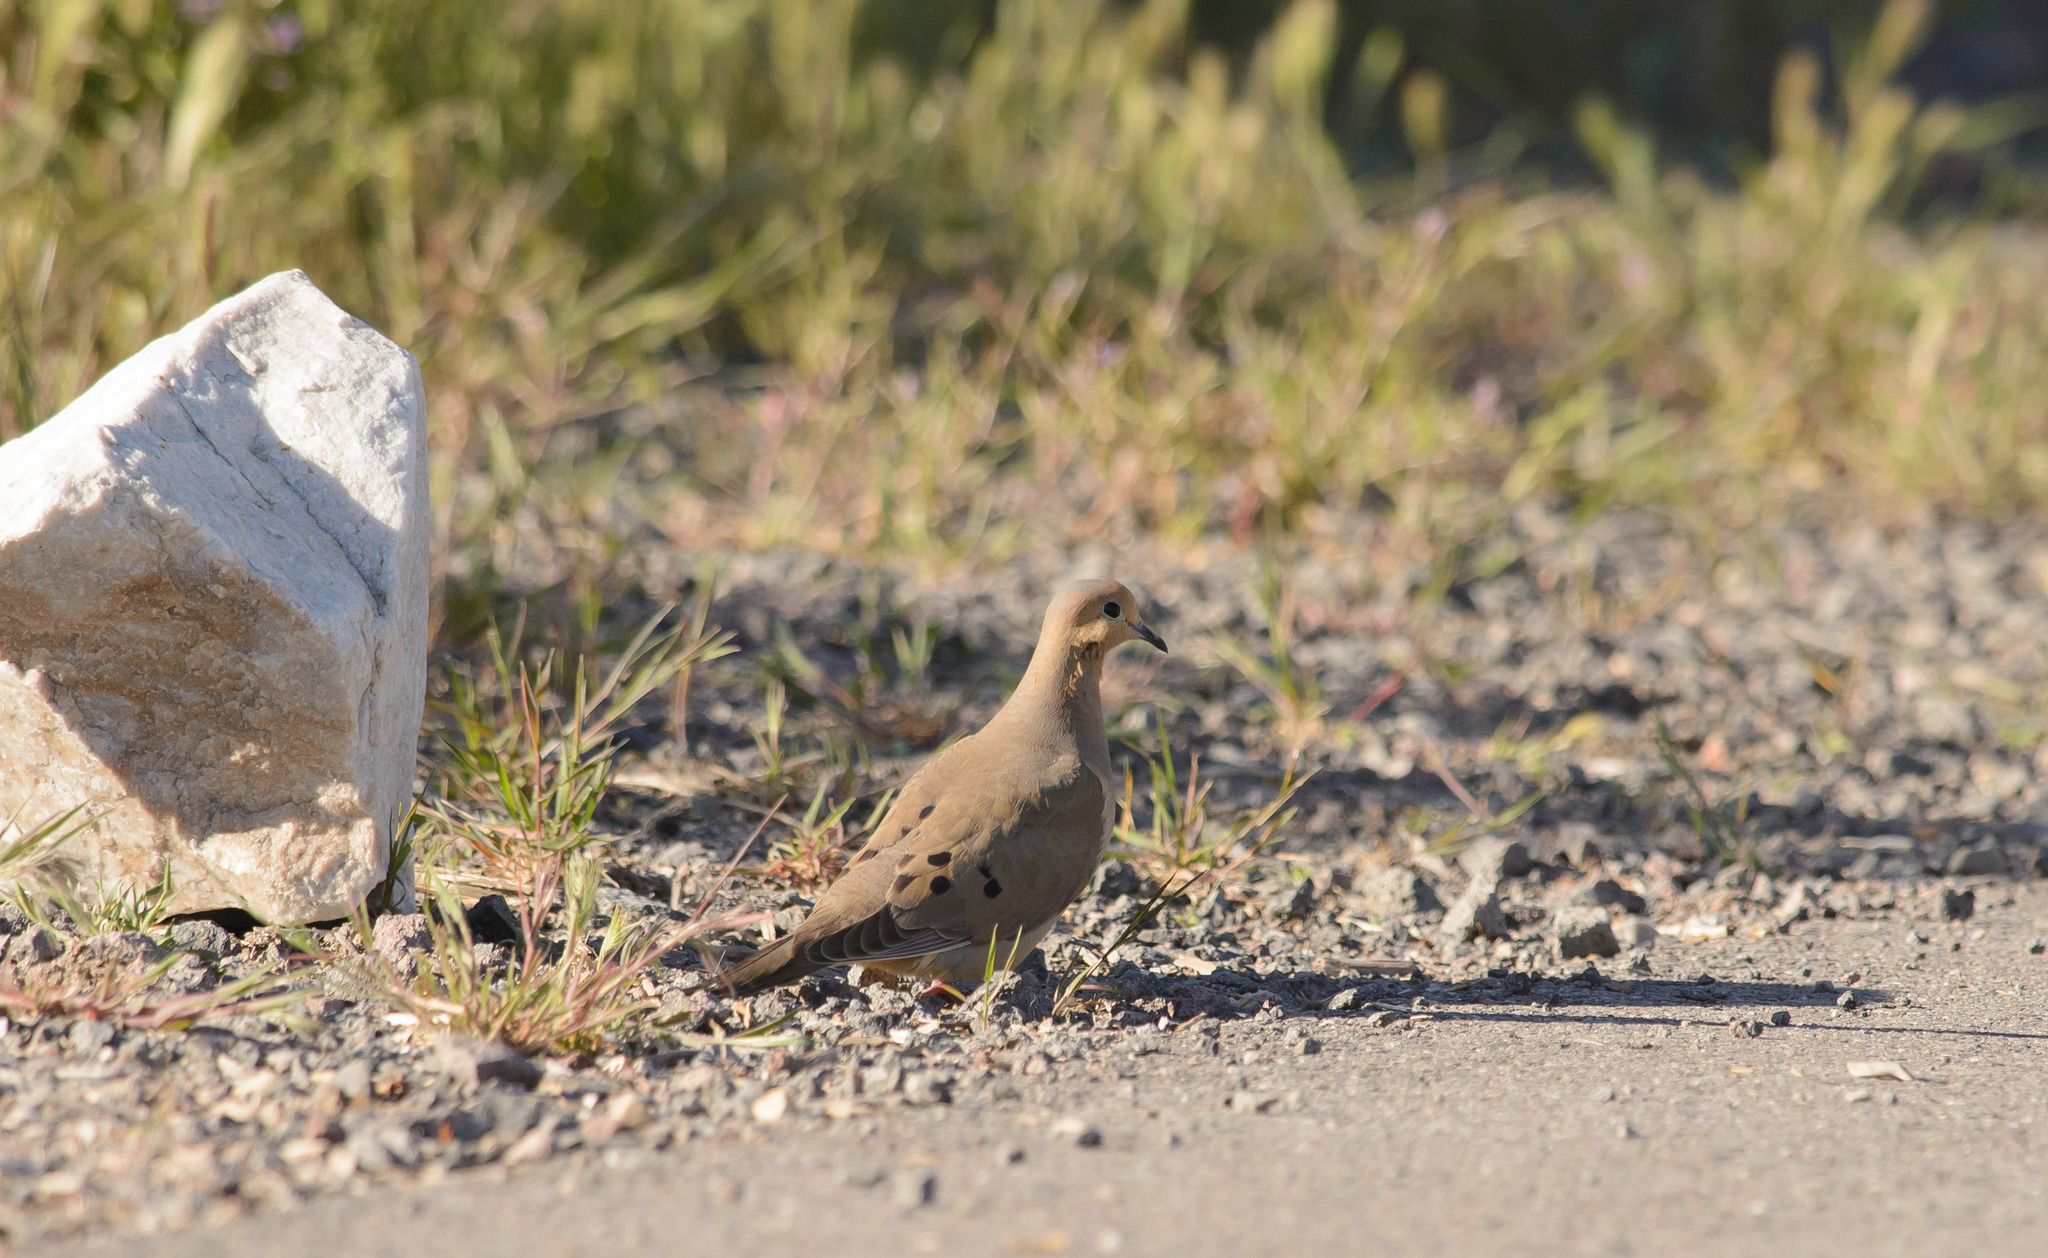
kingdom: Animalia
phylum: Chordata
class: Aves
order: Columbiformes
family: Columbidae
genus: Zenaida
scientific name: Zenaida macroura
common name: Mourning dove
